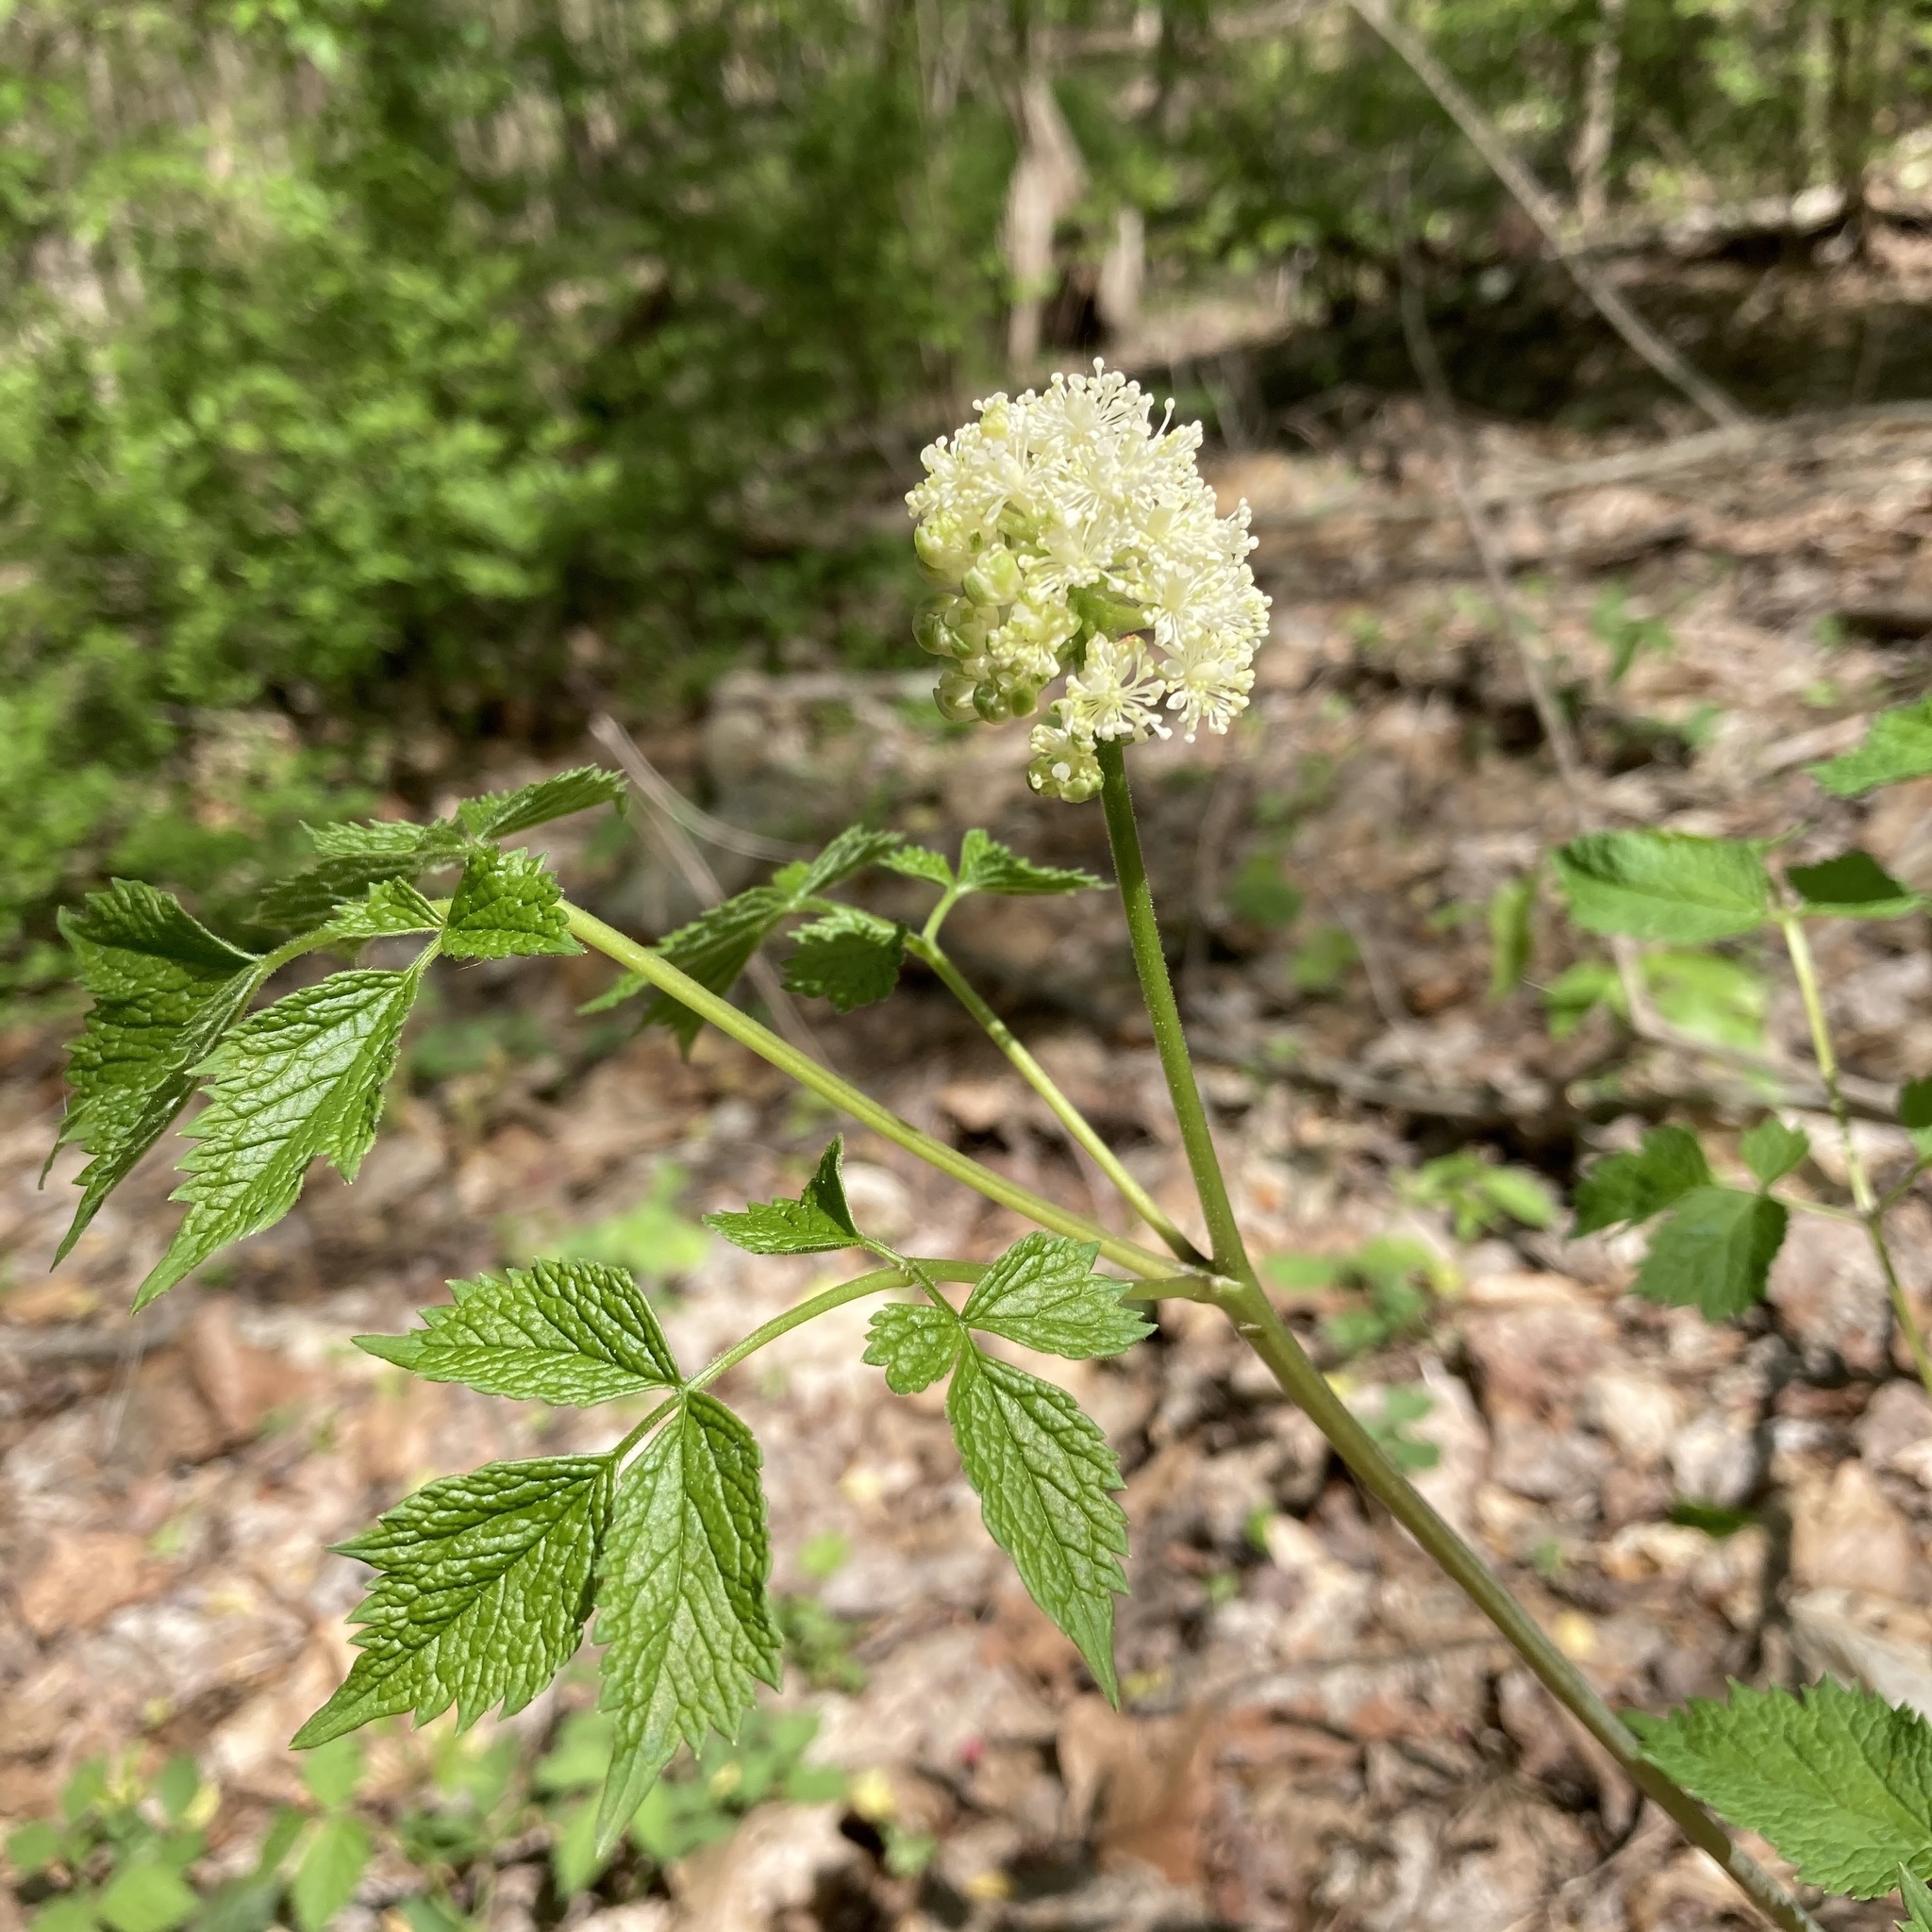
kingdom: Plantae
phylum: Tracheophyta
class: Magnoliopsida
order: Ranunculales
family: Ranunculaceae
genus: Actaea
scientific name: Actaea pachypoda
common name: Doll's-eyes
